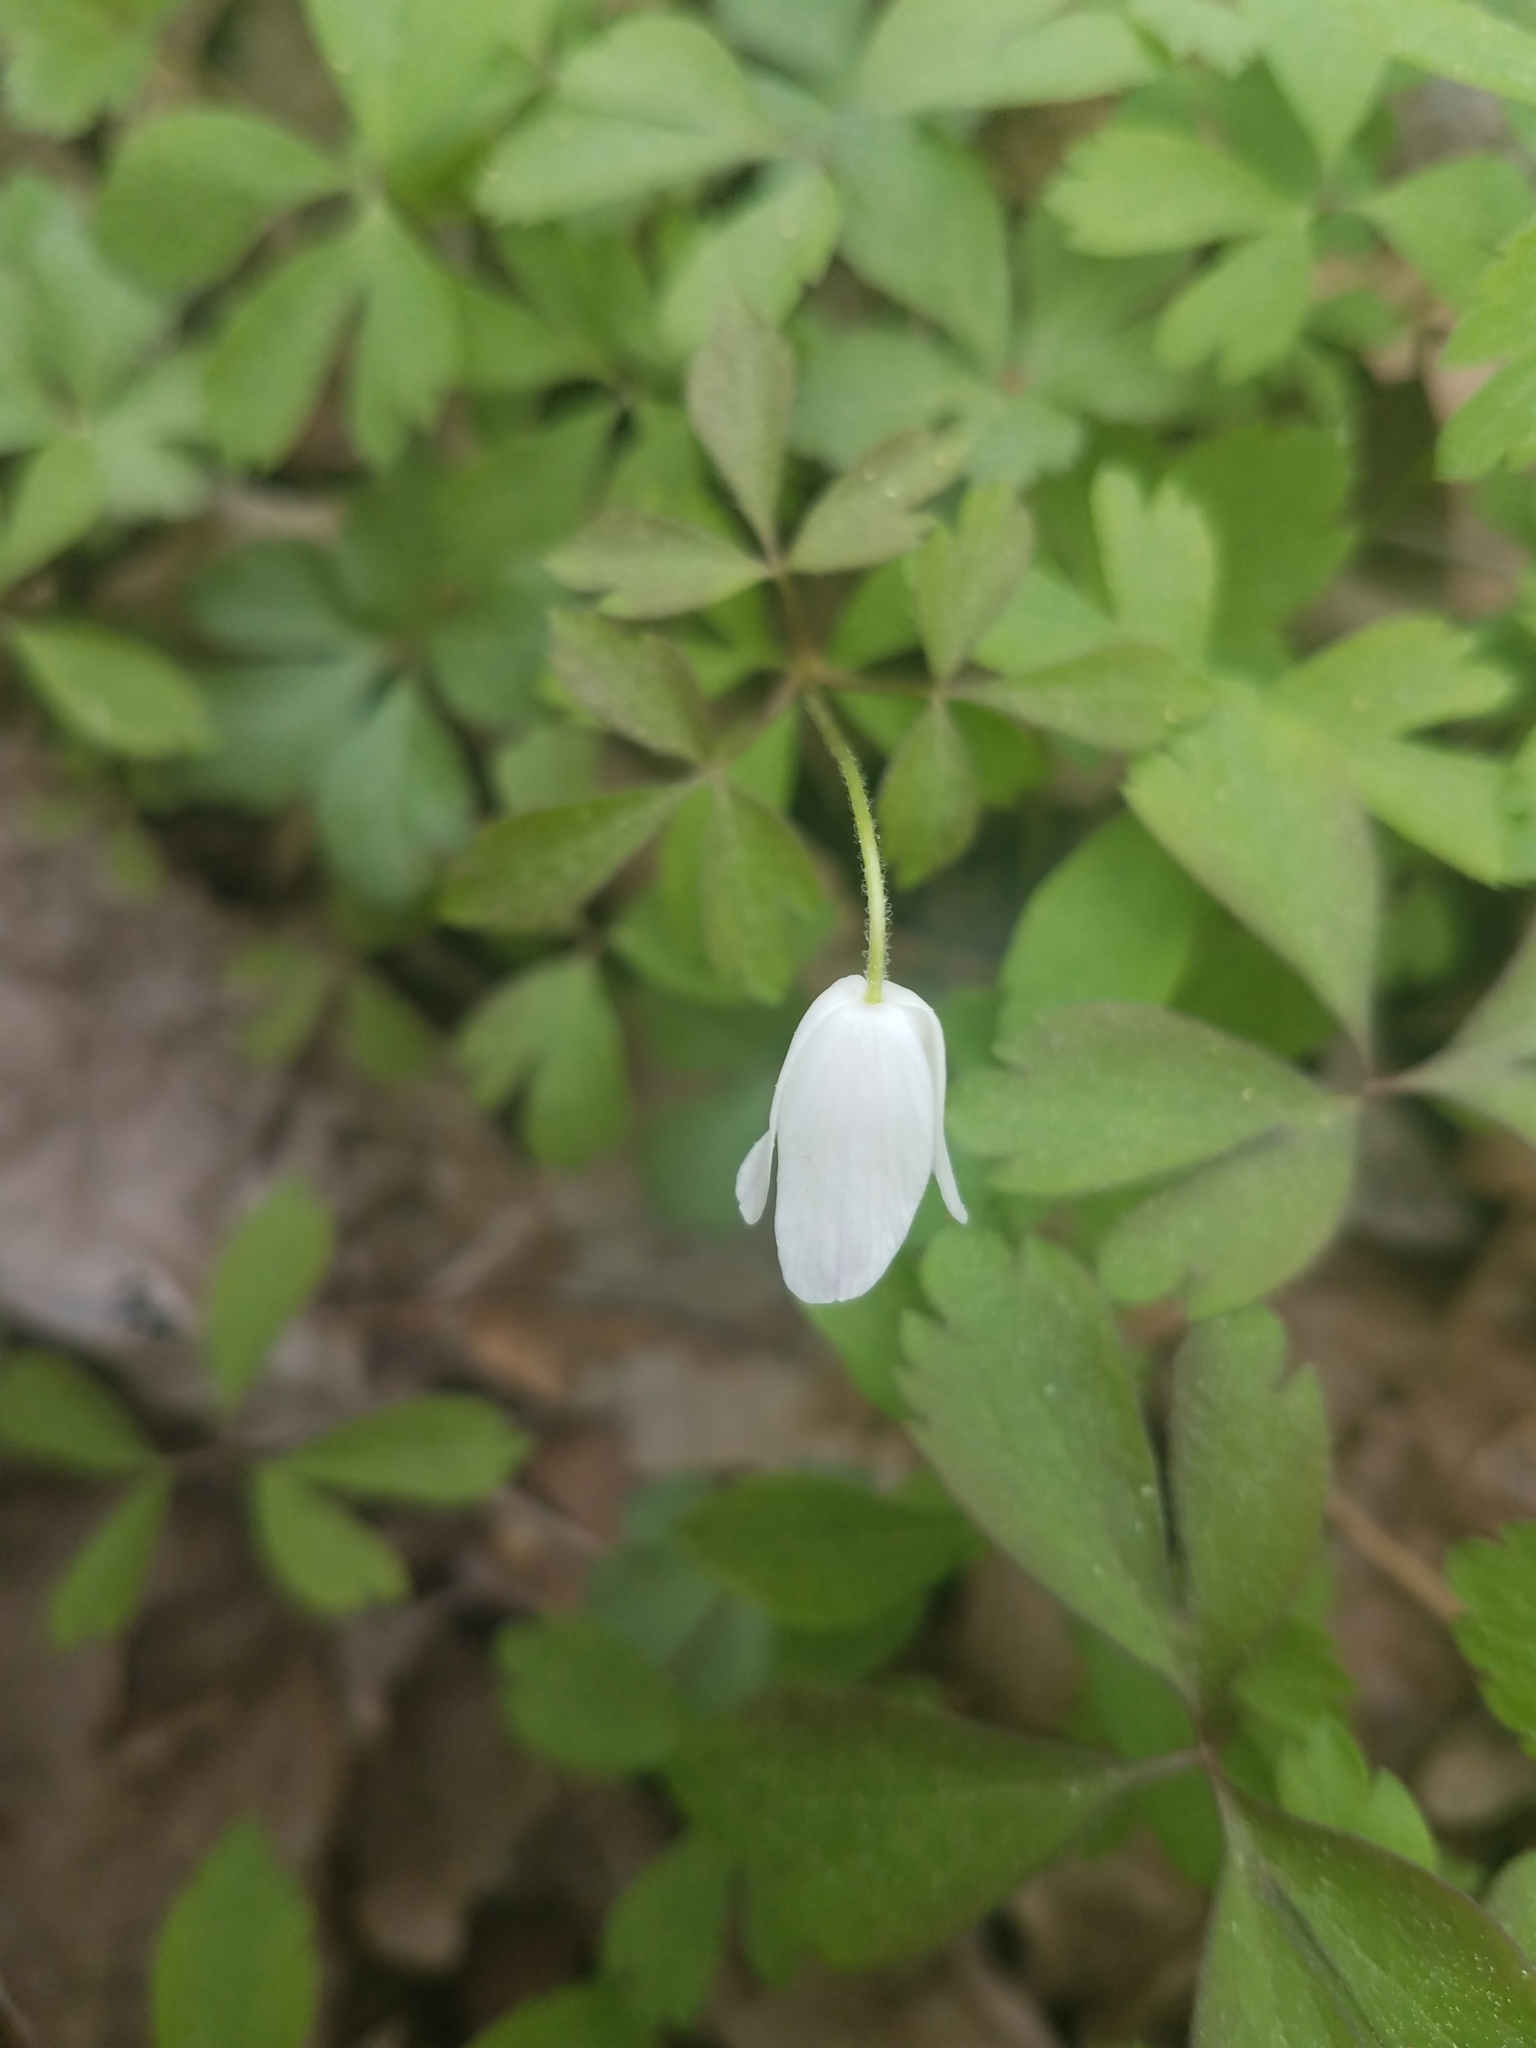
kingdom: Plantae
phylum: Tracheophyta
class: Magnoliopsida
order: Ranunculales
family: Ranunculaceae
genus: Anemone
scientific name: Anemone quinquefolia
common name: Wood anemone
